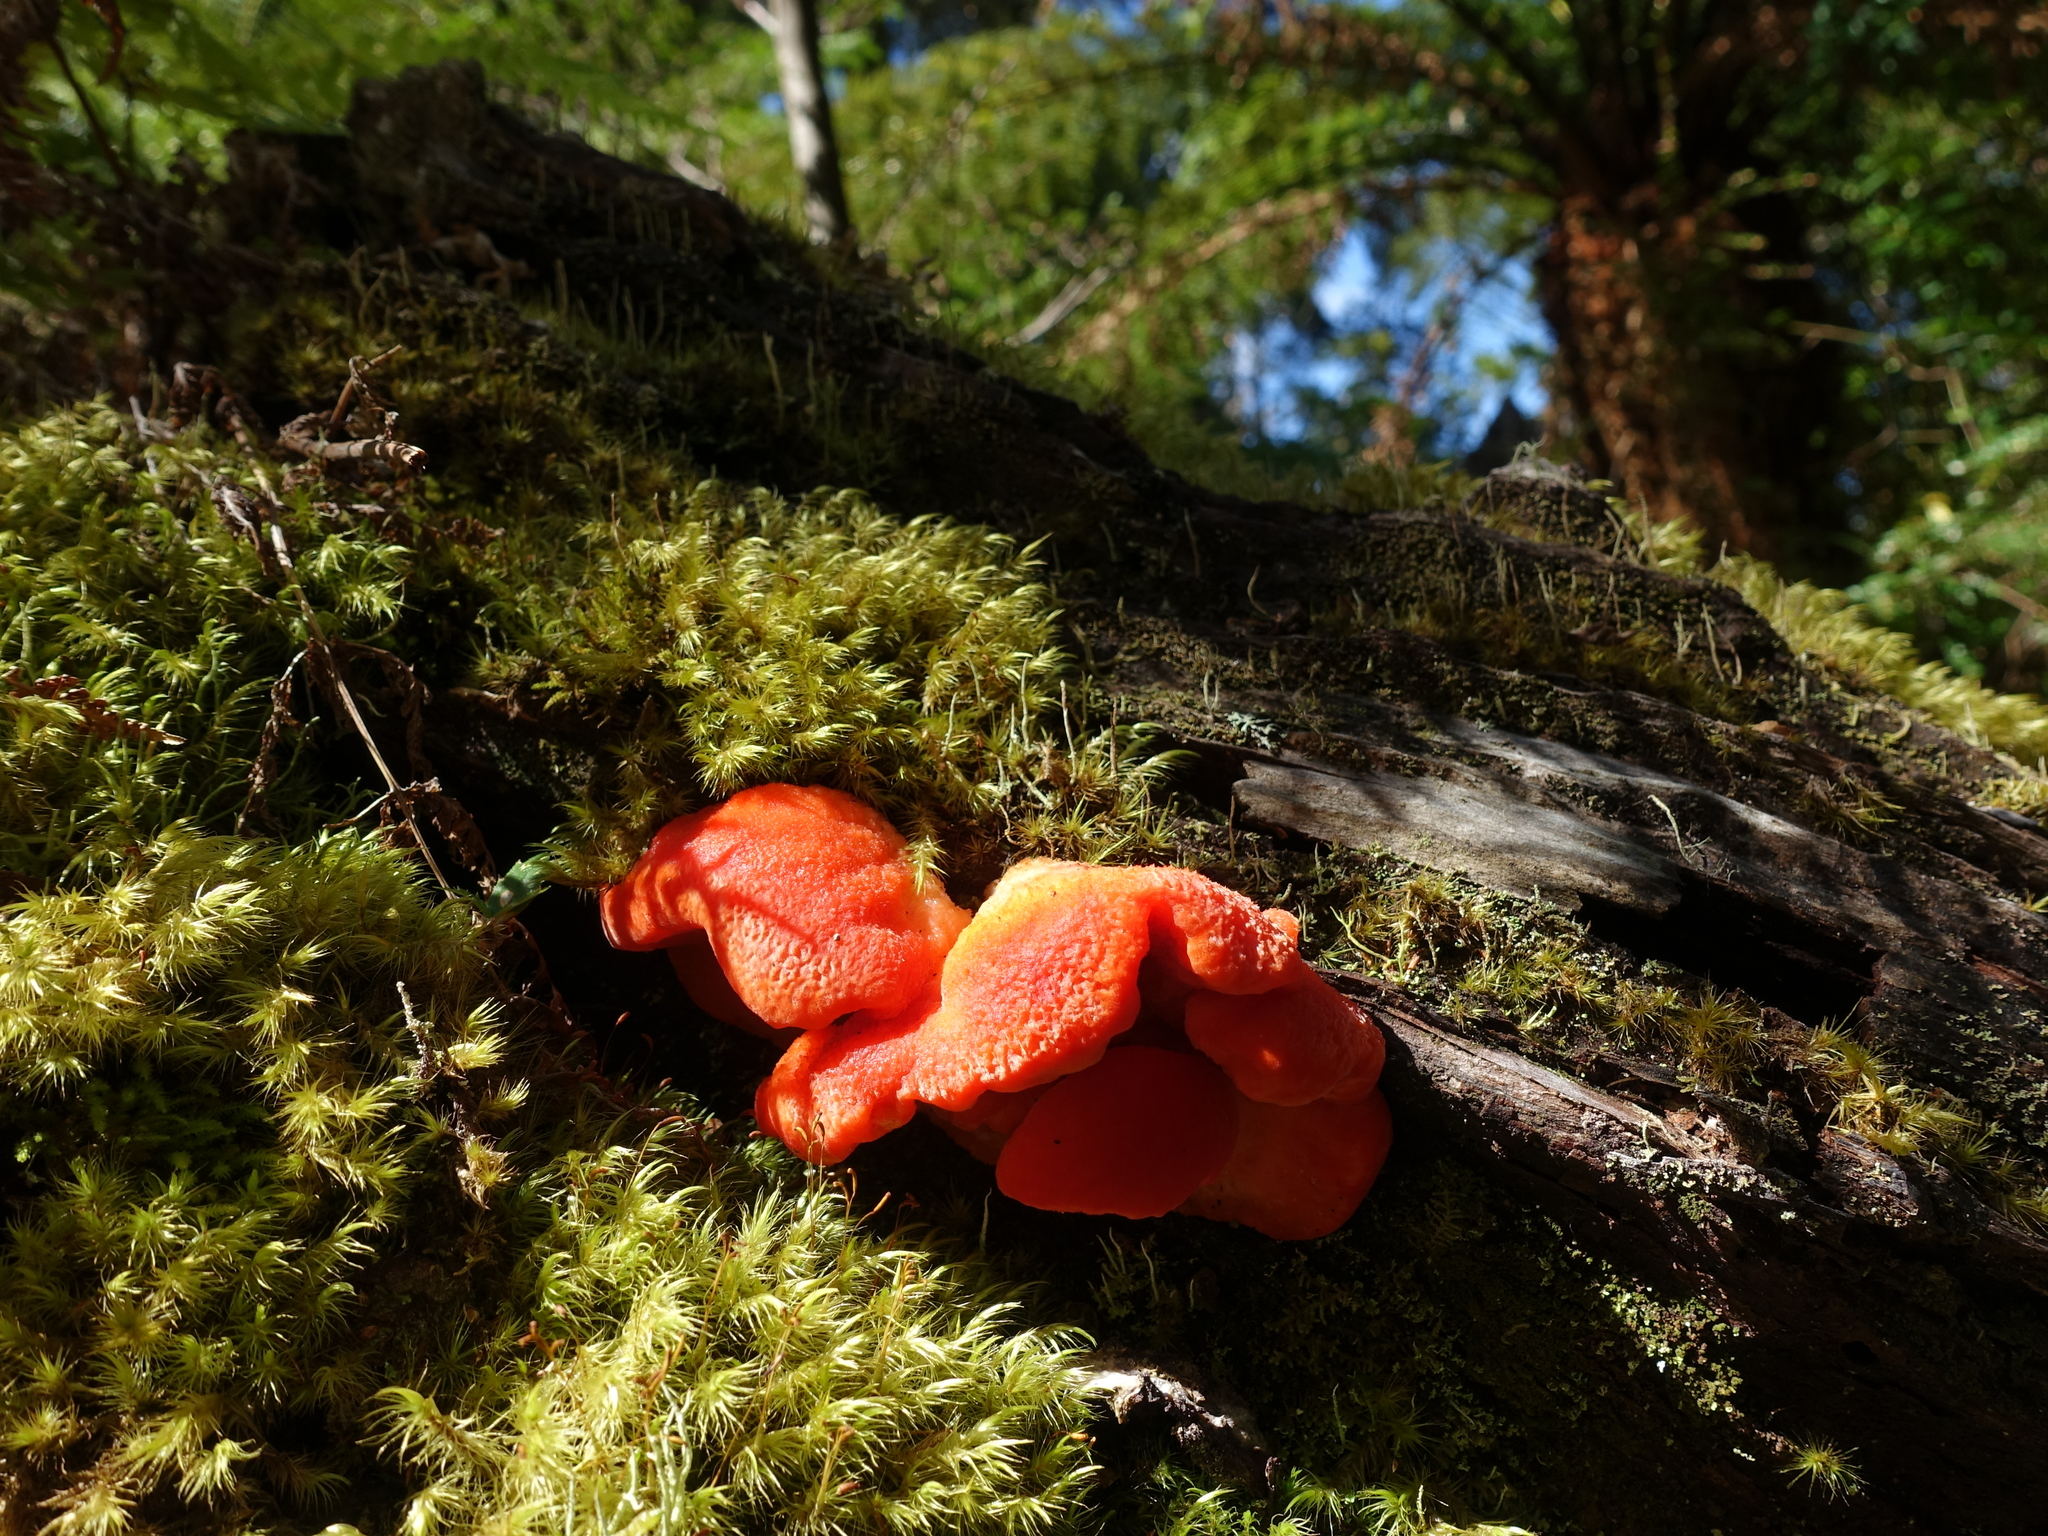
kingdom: Fungi
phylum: Basidiomycota
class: Agaricomycetes
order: Polyporales
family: Incrustoporiaceae
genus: Tyromyces
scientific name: Tyromyces pulcherrimus
